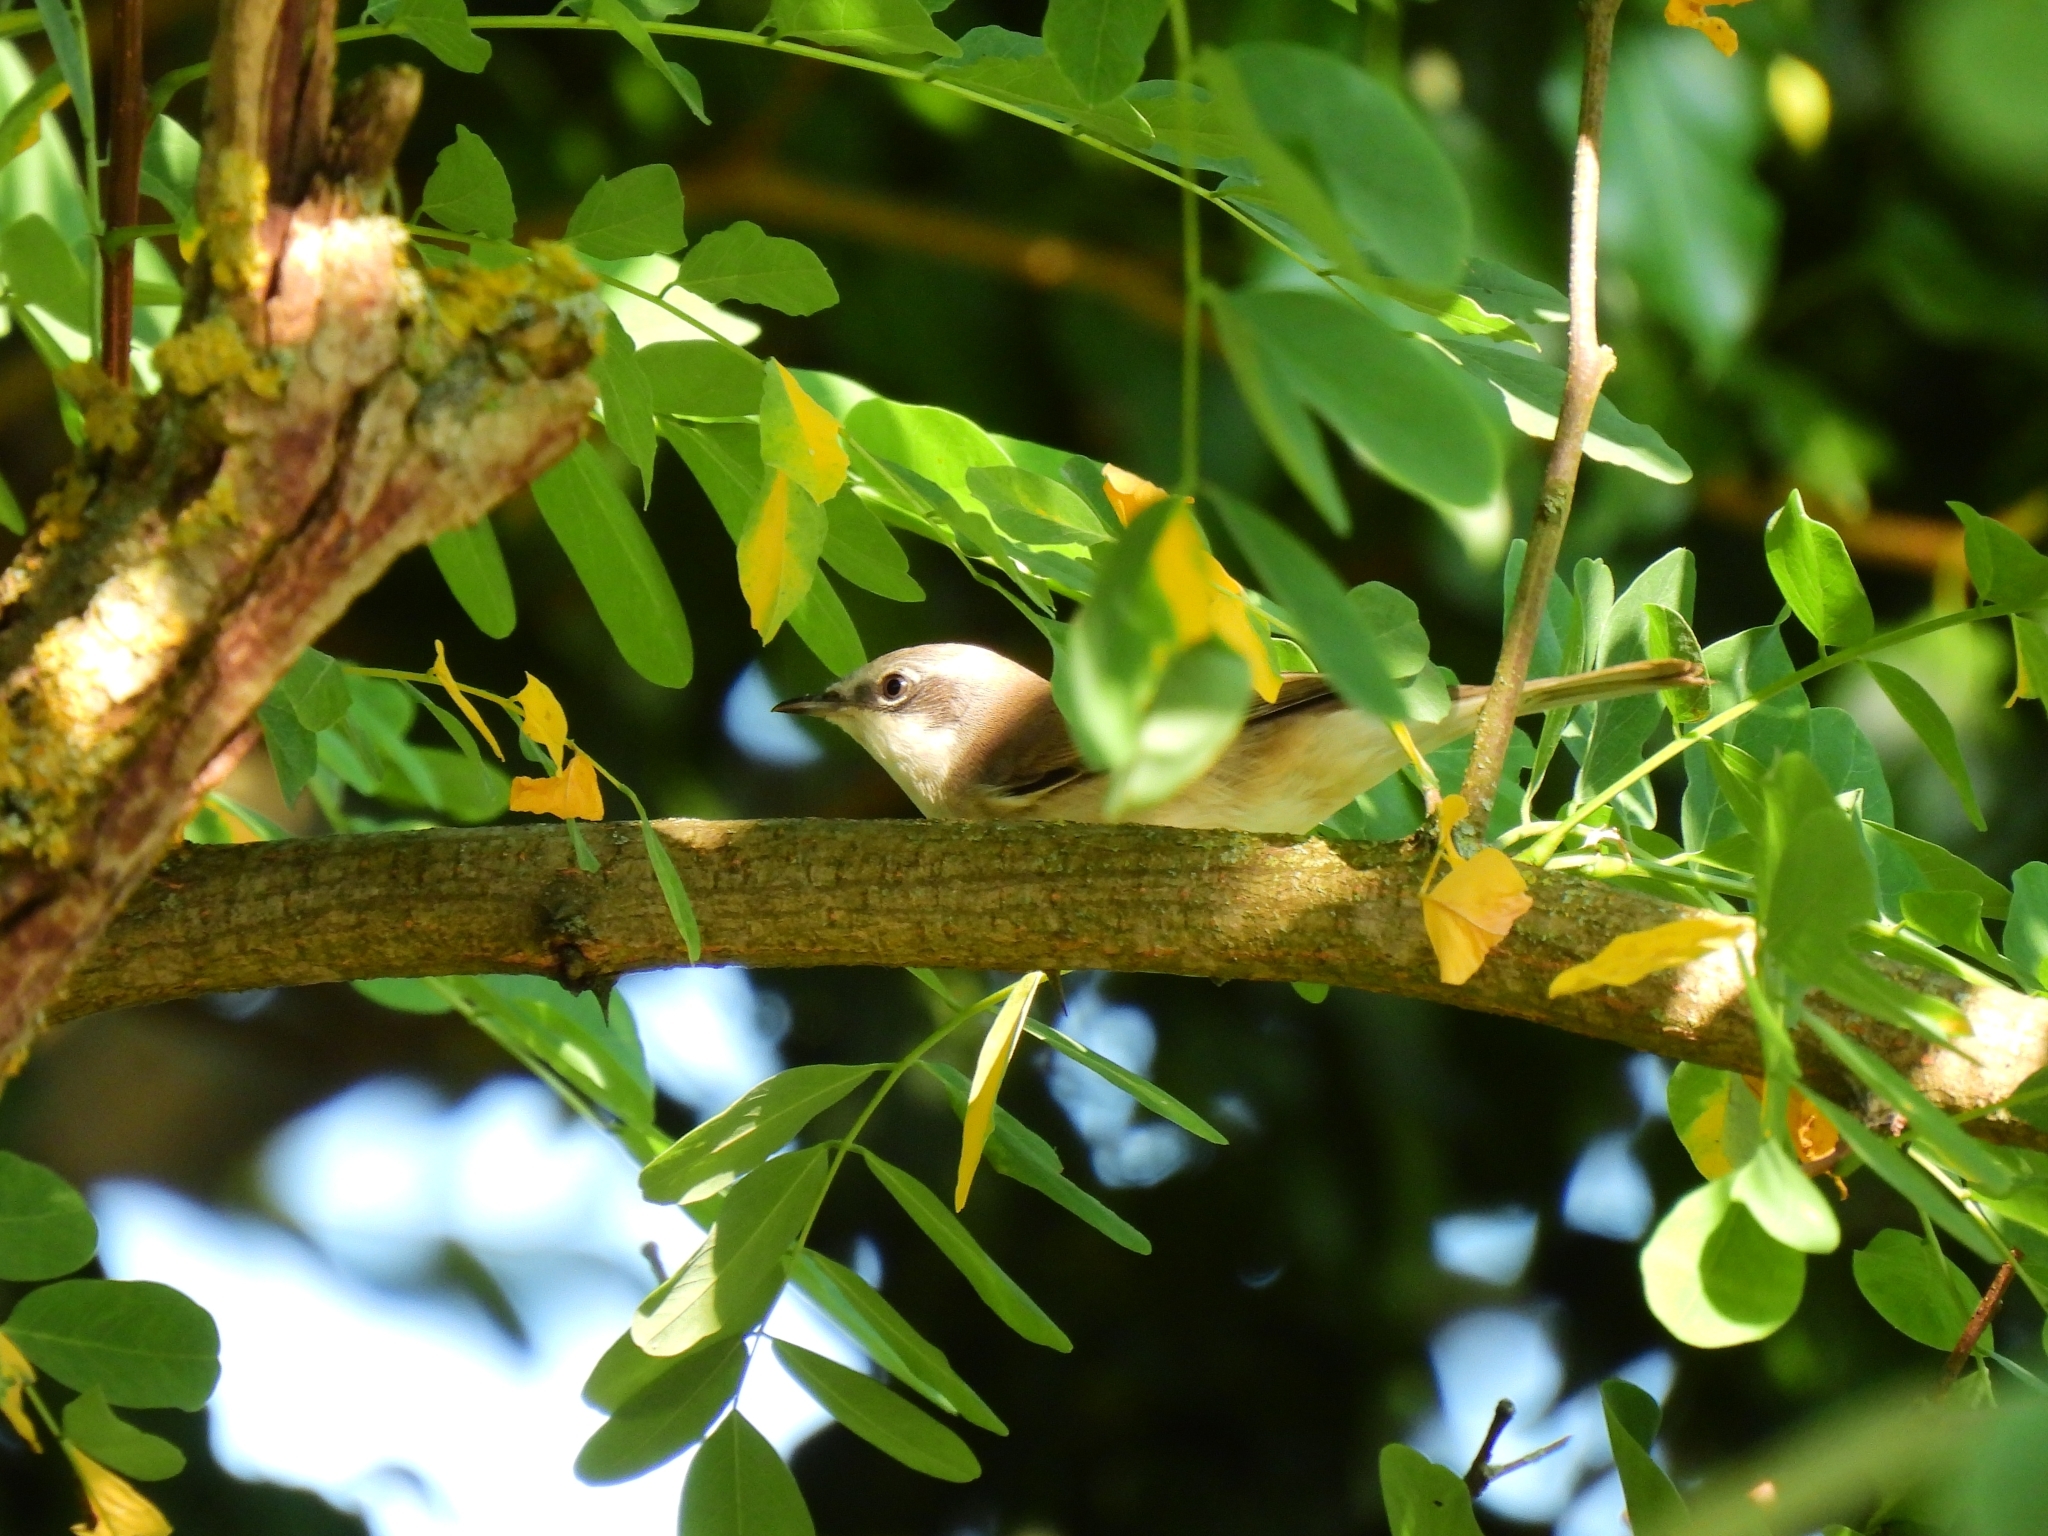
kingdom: Animalia
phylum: Chordata
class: Aves
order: Passeriformes
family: Sylviidae
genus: Sylvia
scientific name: Sylvia curruca
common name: Lesser whitethroat
